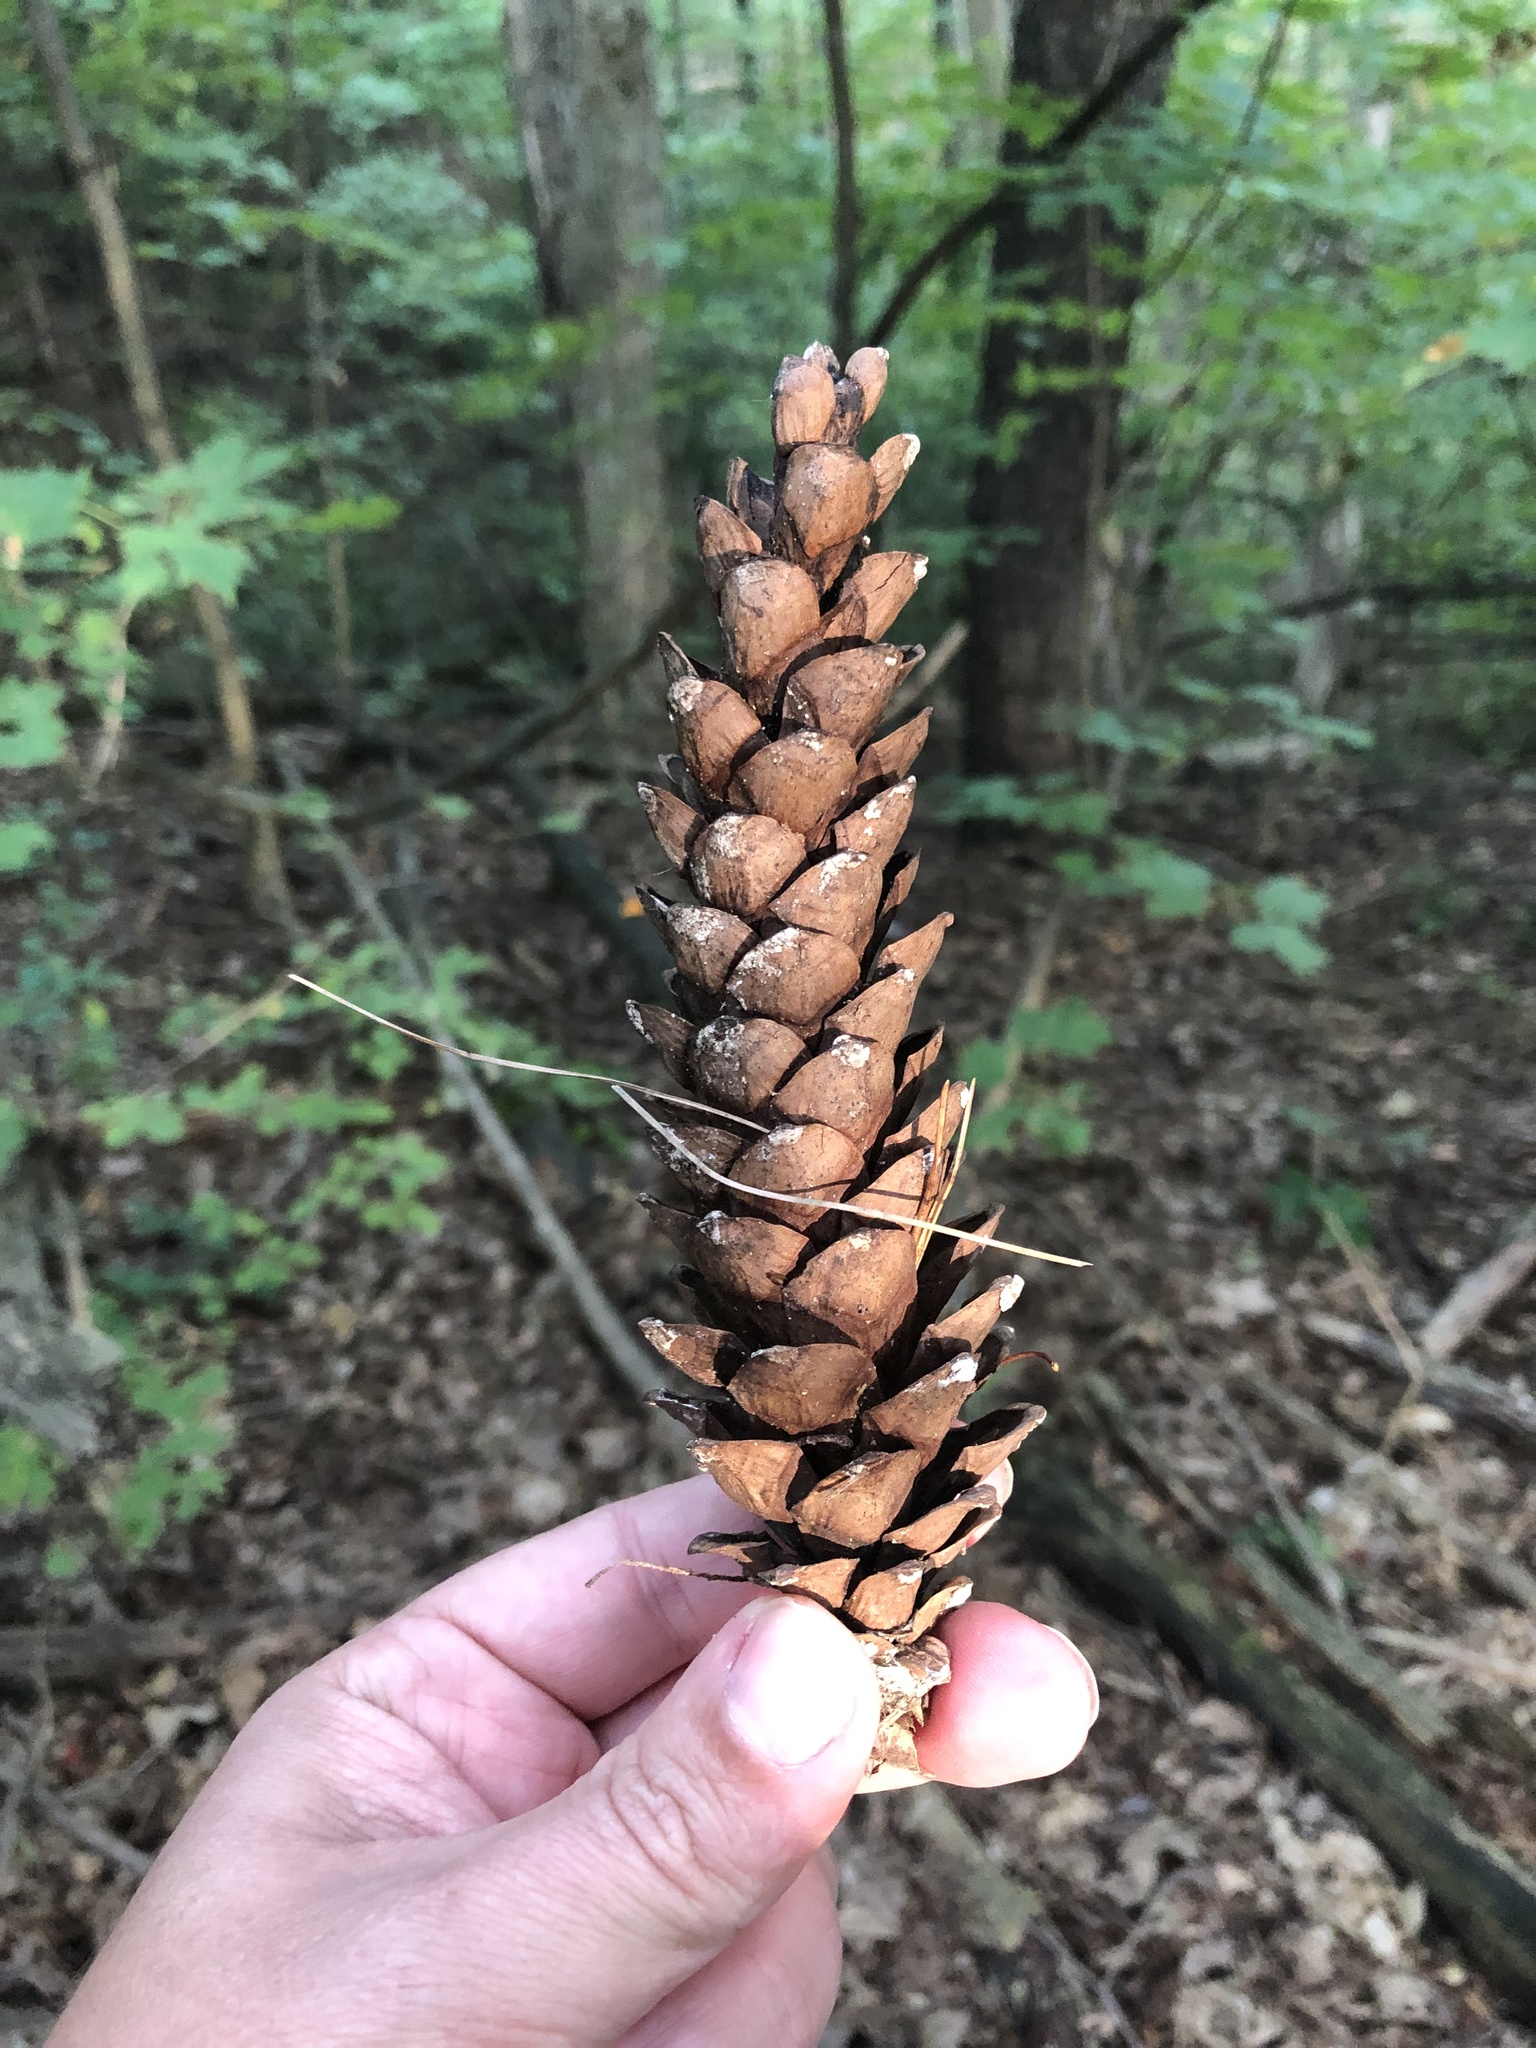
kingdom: Plantae
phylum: Tracheophyta
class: Pinopsida
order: Pinales
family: Pinaceae
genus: Pinus
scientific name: Pinus strobus
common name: Weymouth pine
